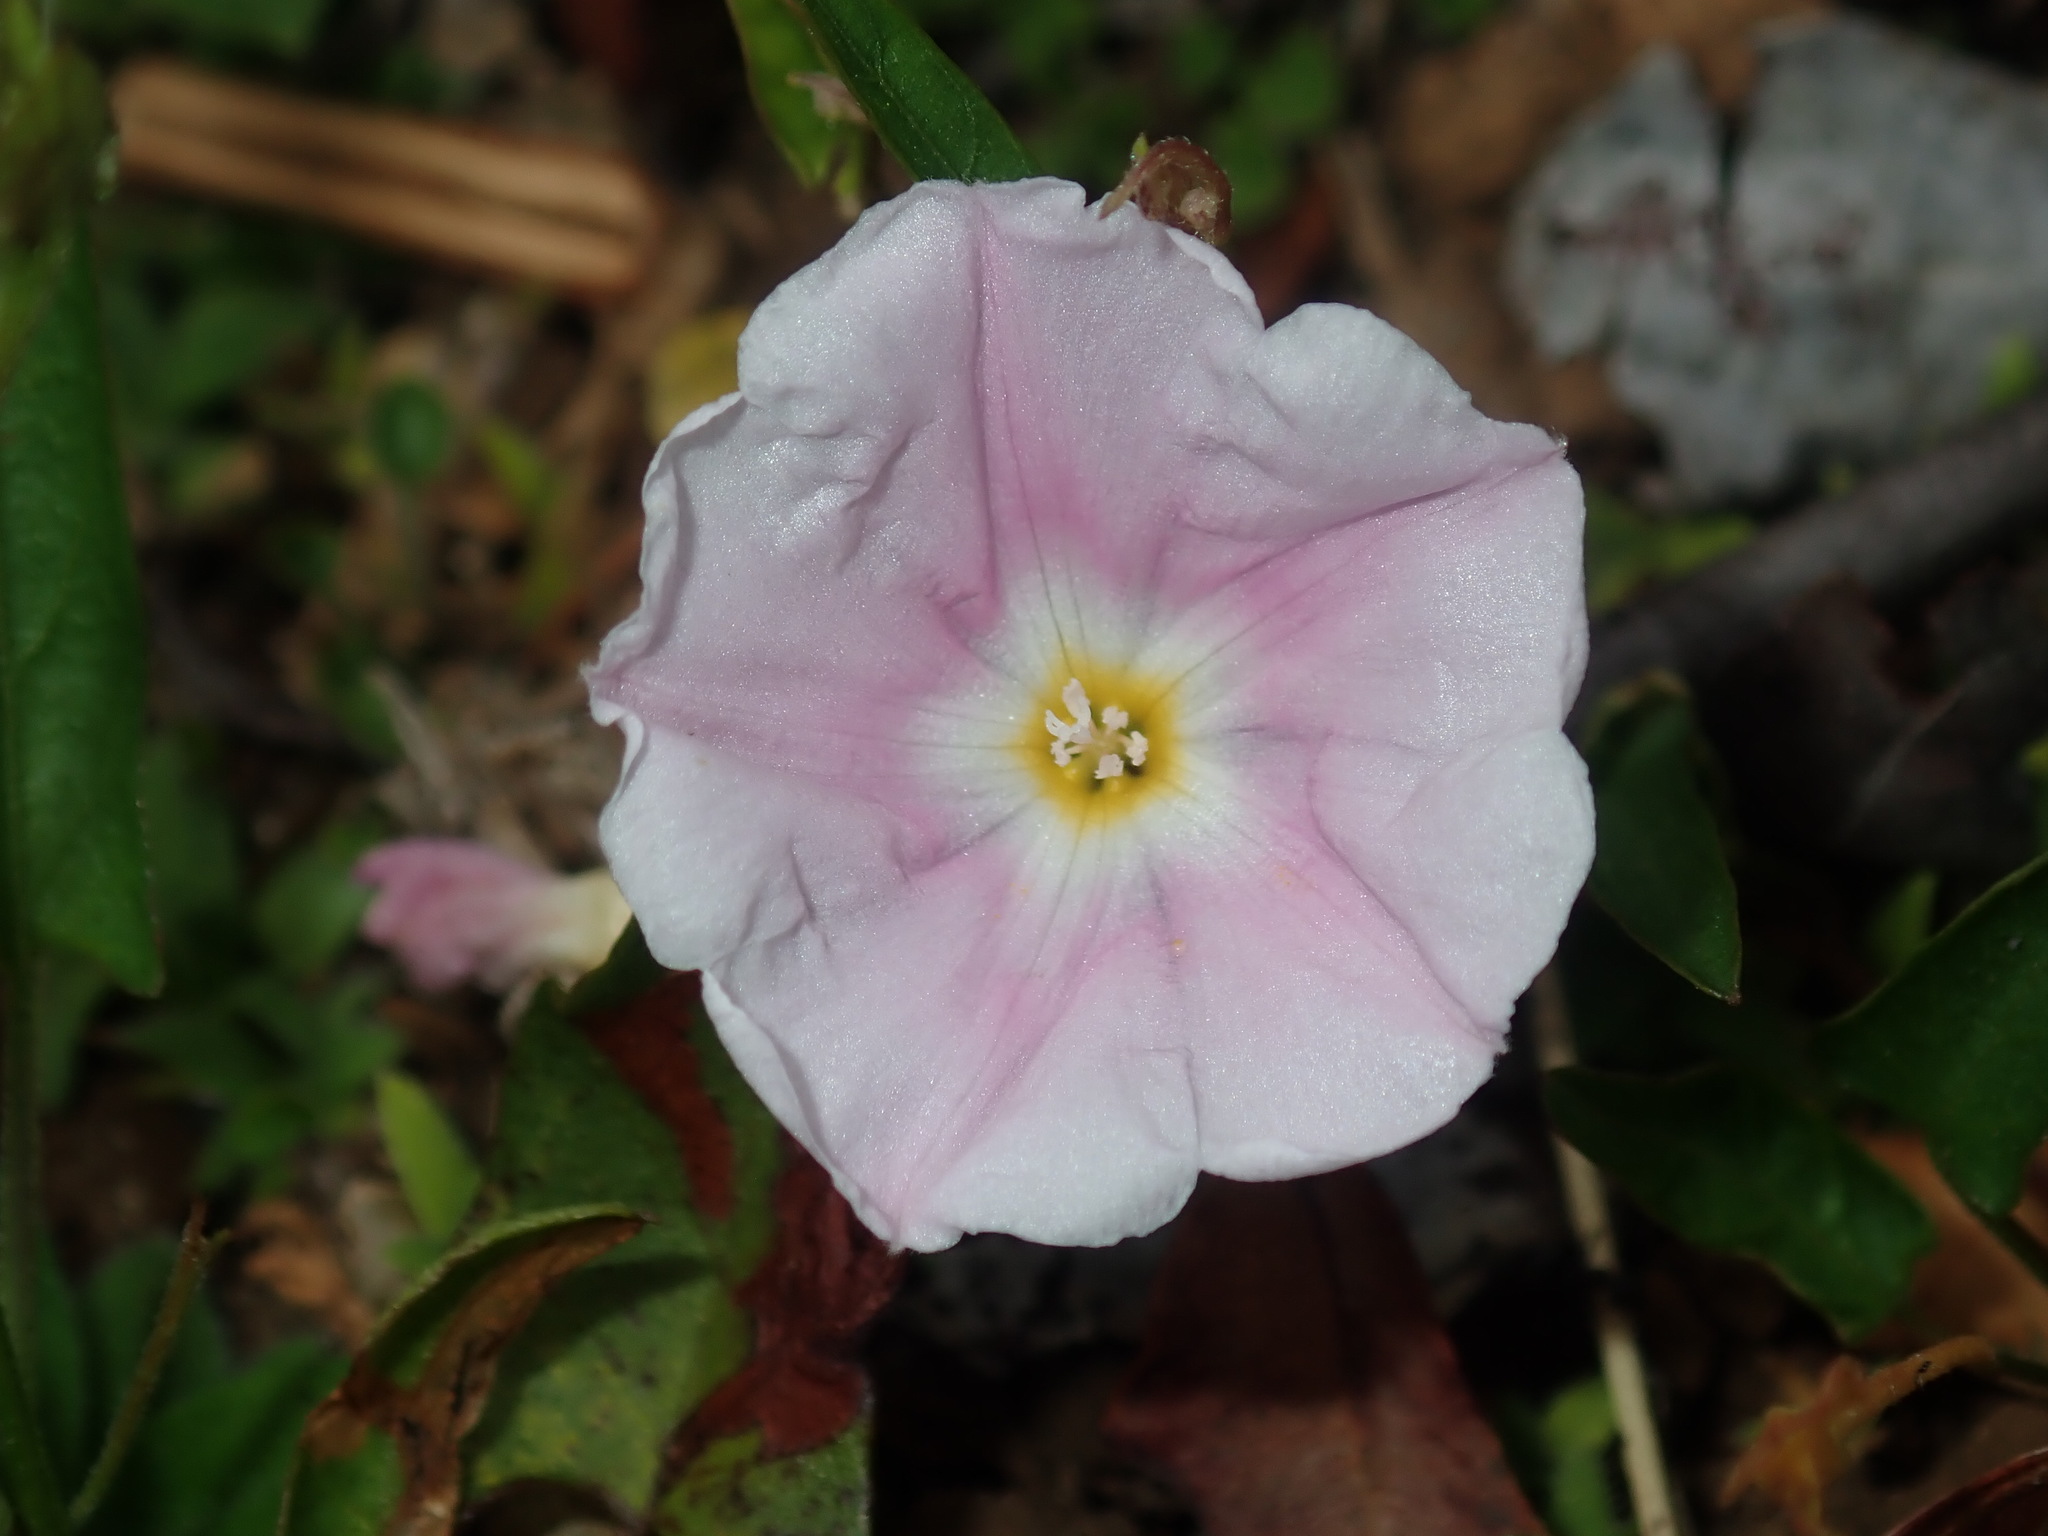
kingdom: Plantae
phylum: Tracheophyta
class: Magnoliopsida
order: Solanales
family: Convolvulaceae
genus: Polymeria
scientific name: Polymeria calycina
